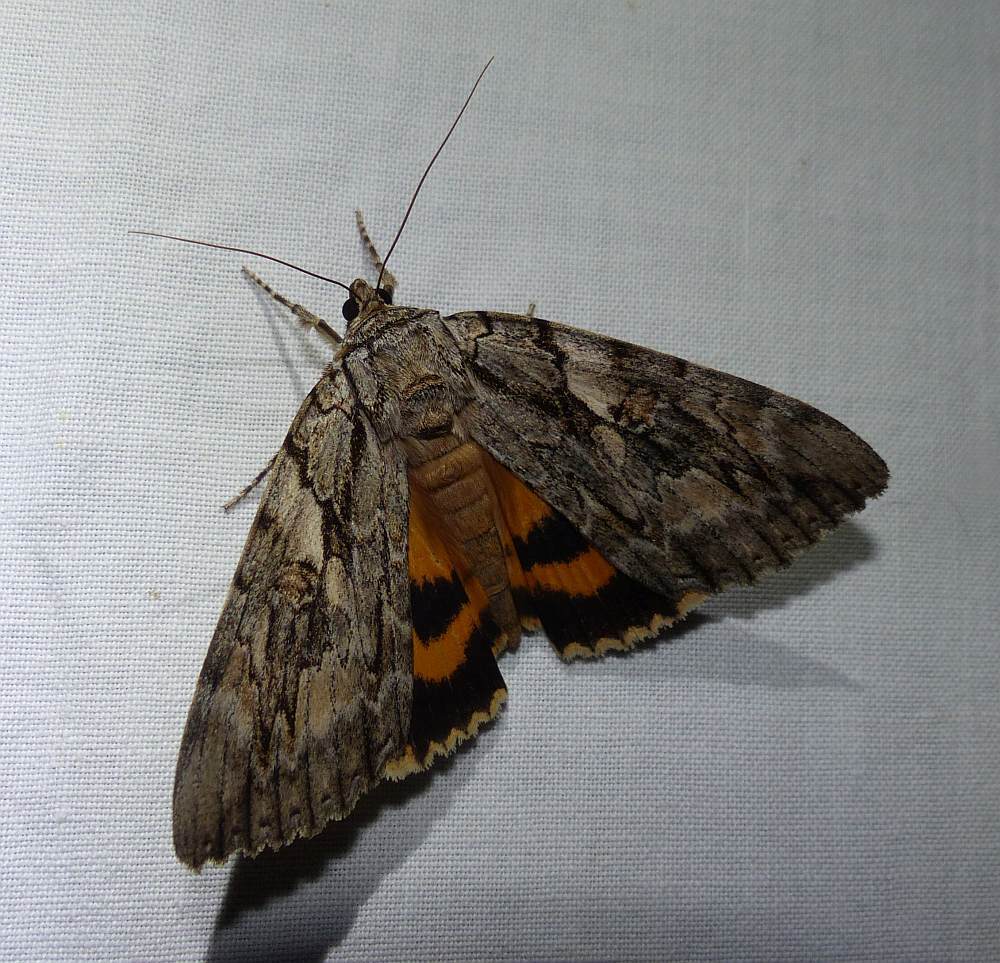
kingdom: Animalia
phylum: Arthropoda
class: Insecta
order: Lepidoptera
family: Erebidae
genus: Catocala
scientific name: Catocala subnata
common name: Youthful underwing
